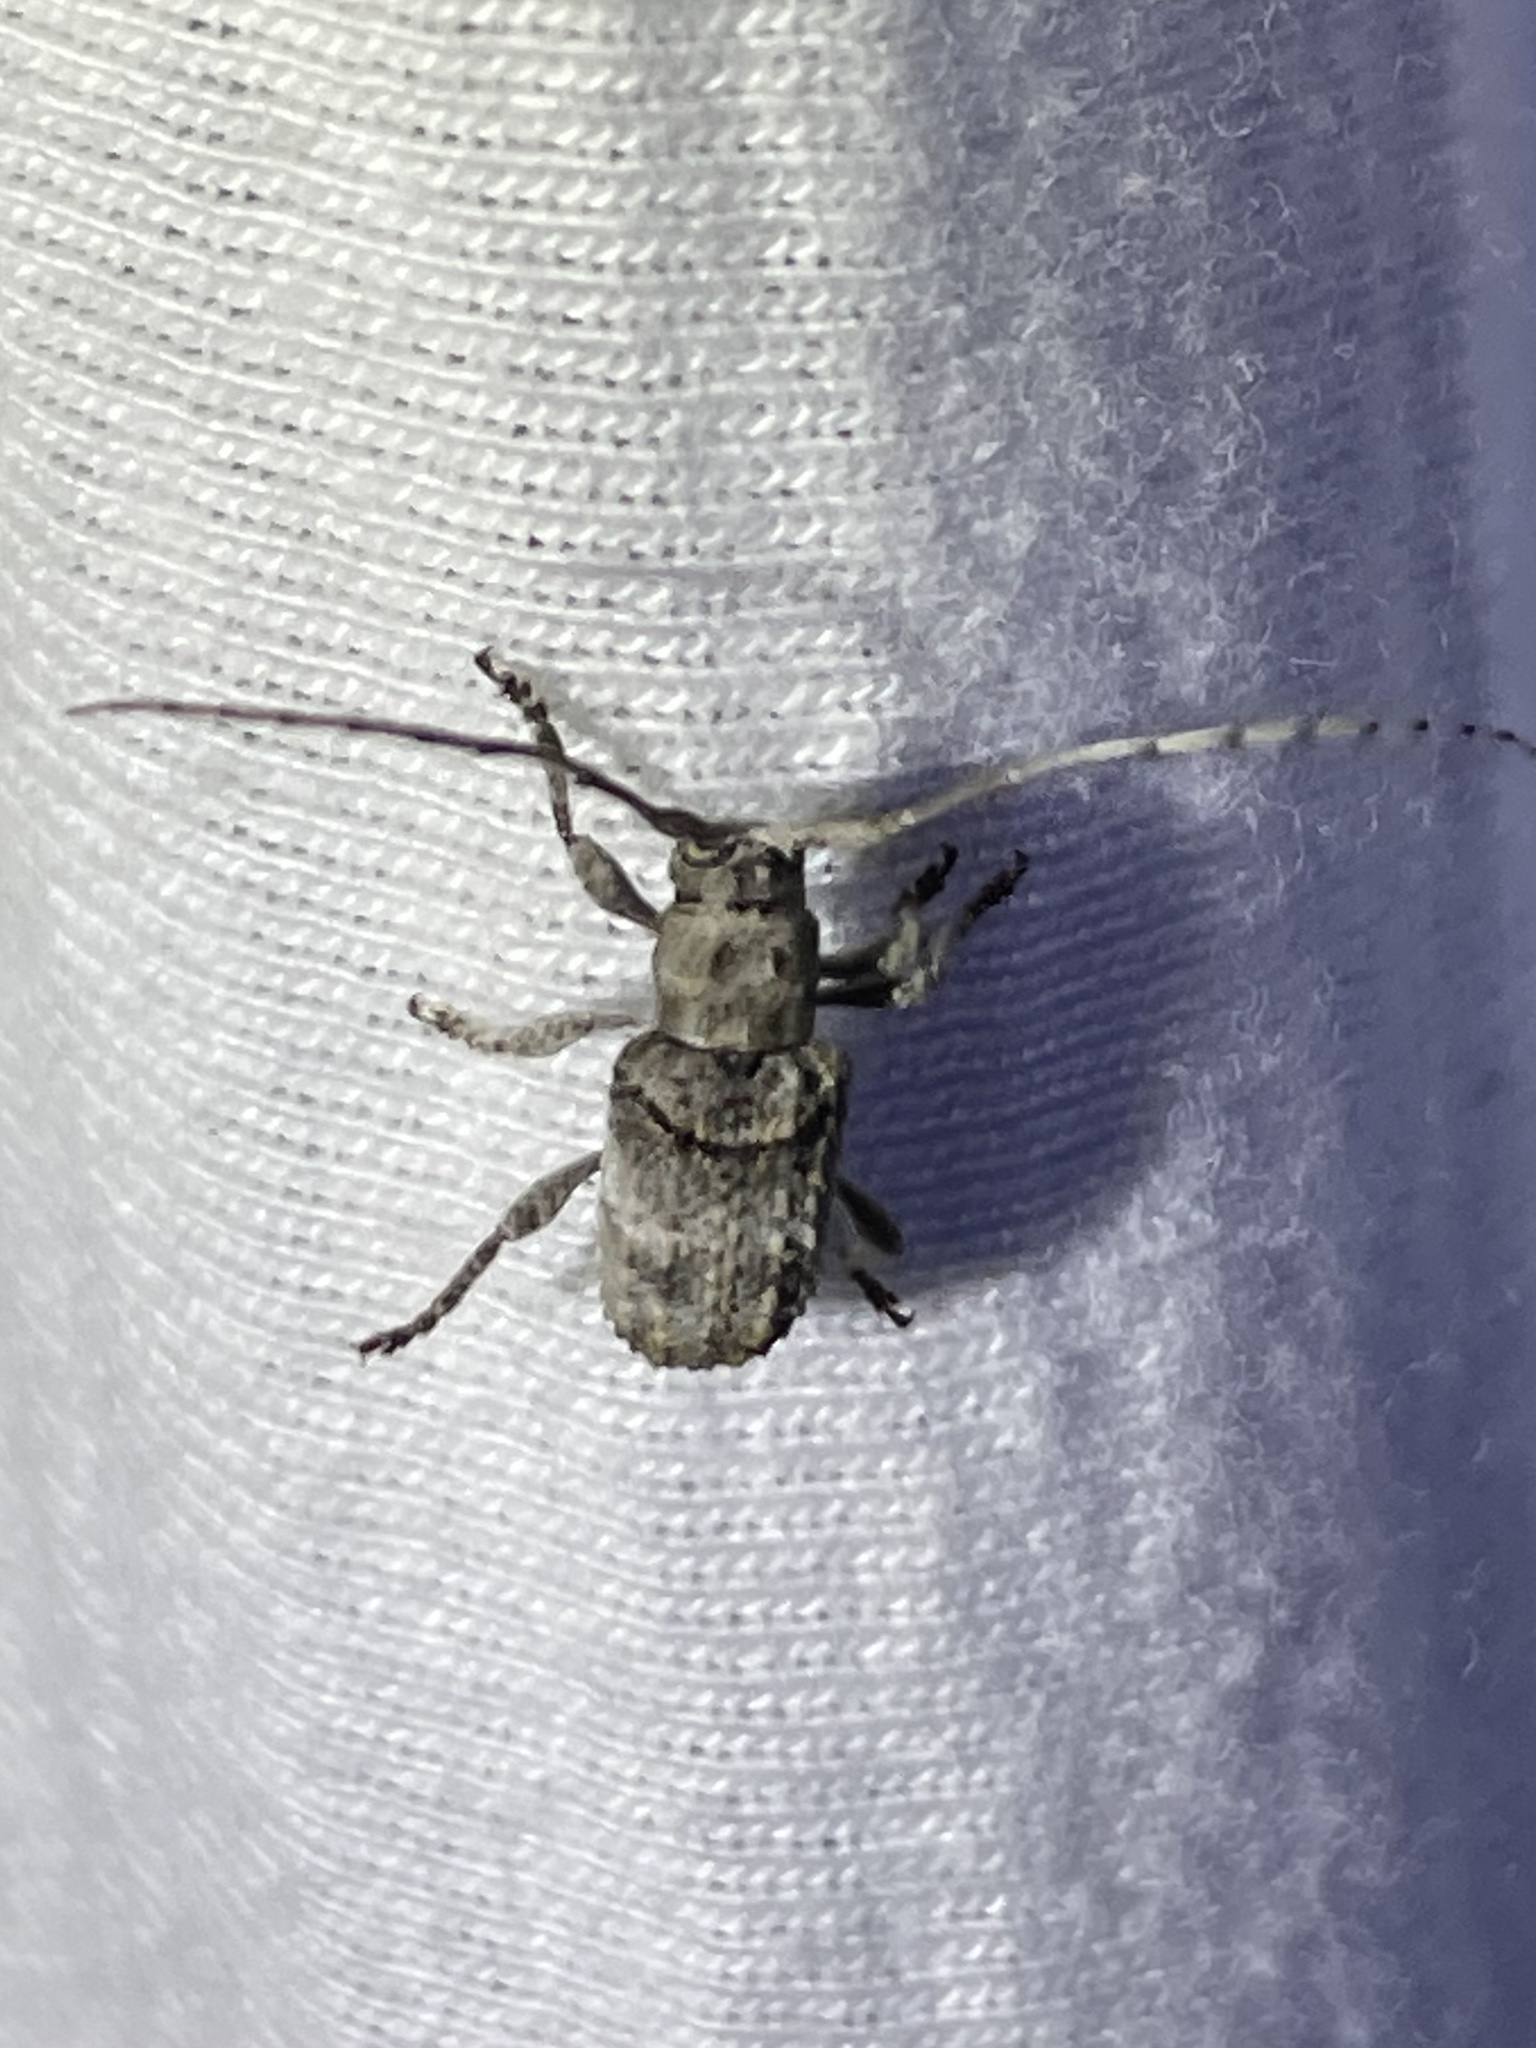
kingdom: Animalia
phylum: Arthropoda
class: Insecta
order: Coleoptera
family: Cerambycidae
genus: Ecyrus
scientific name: Ecyrus dasycerus
